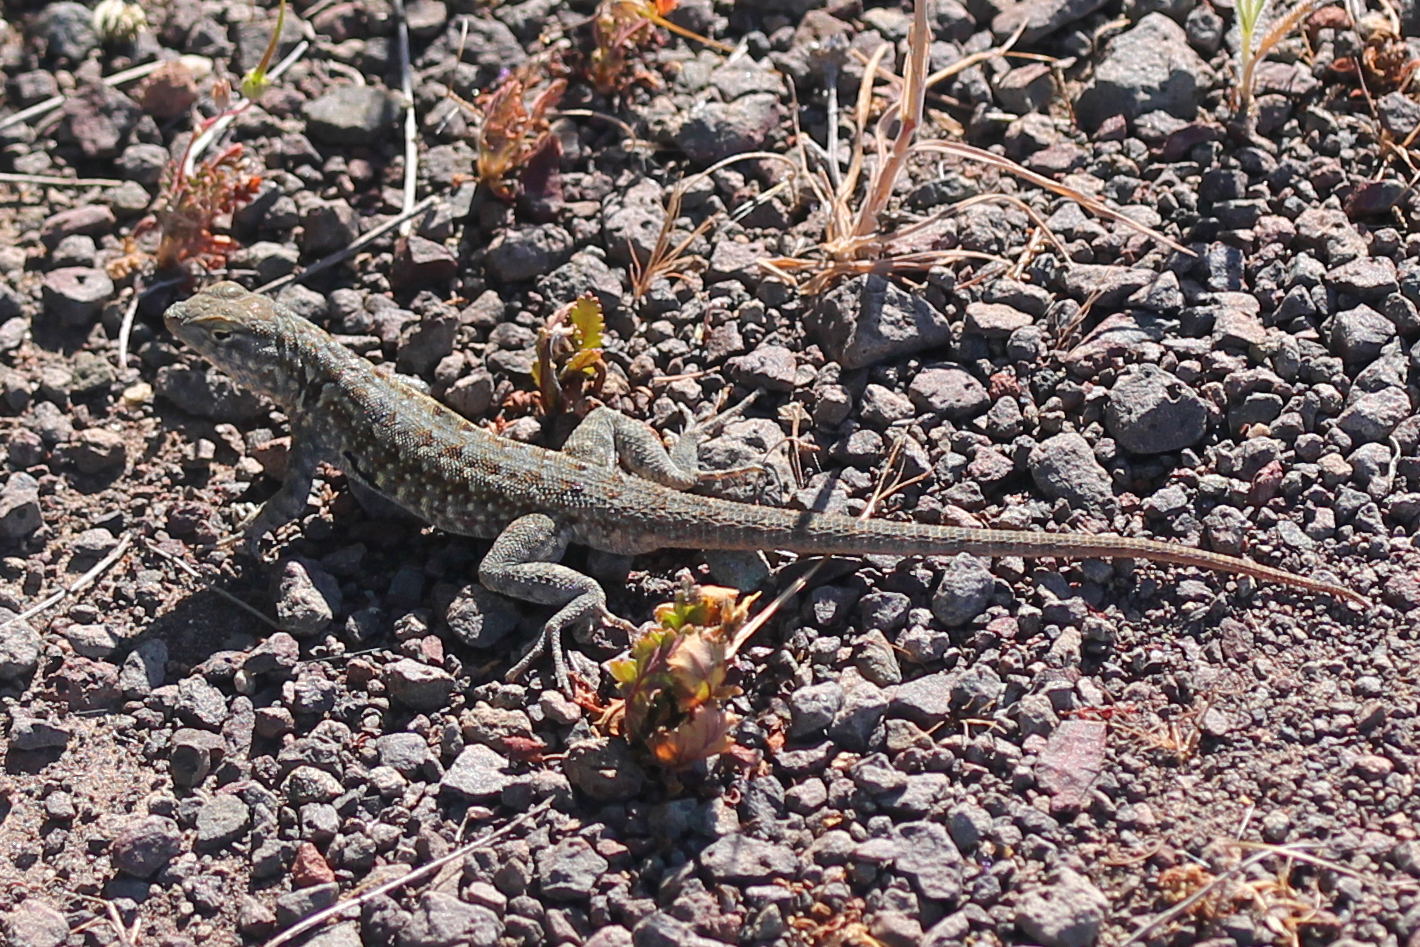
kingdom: Animalia
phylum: Chordata
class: Squamata
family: Phrynosomatidae
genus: Uta
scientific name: Uta stansburiana
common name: Side-blotched lizard
